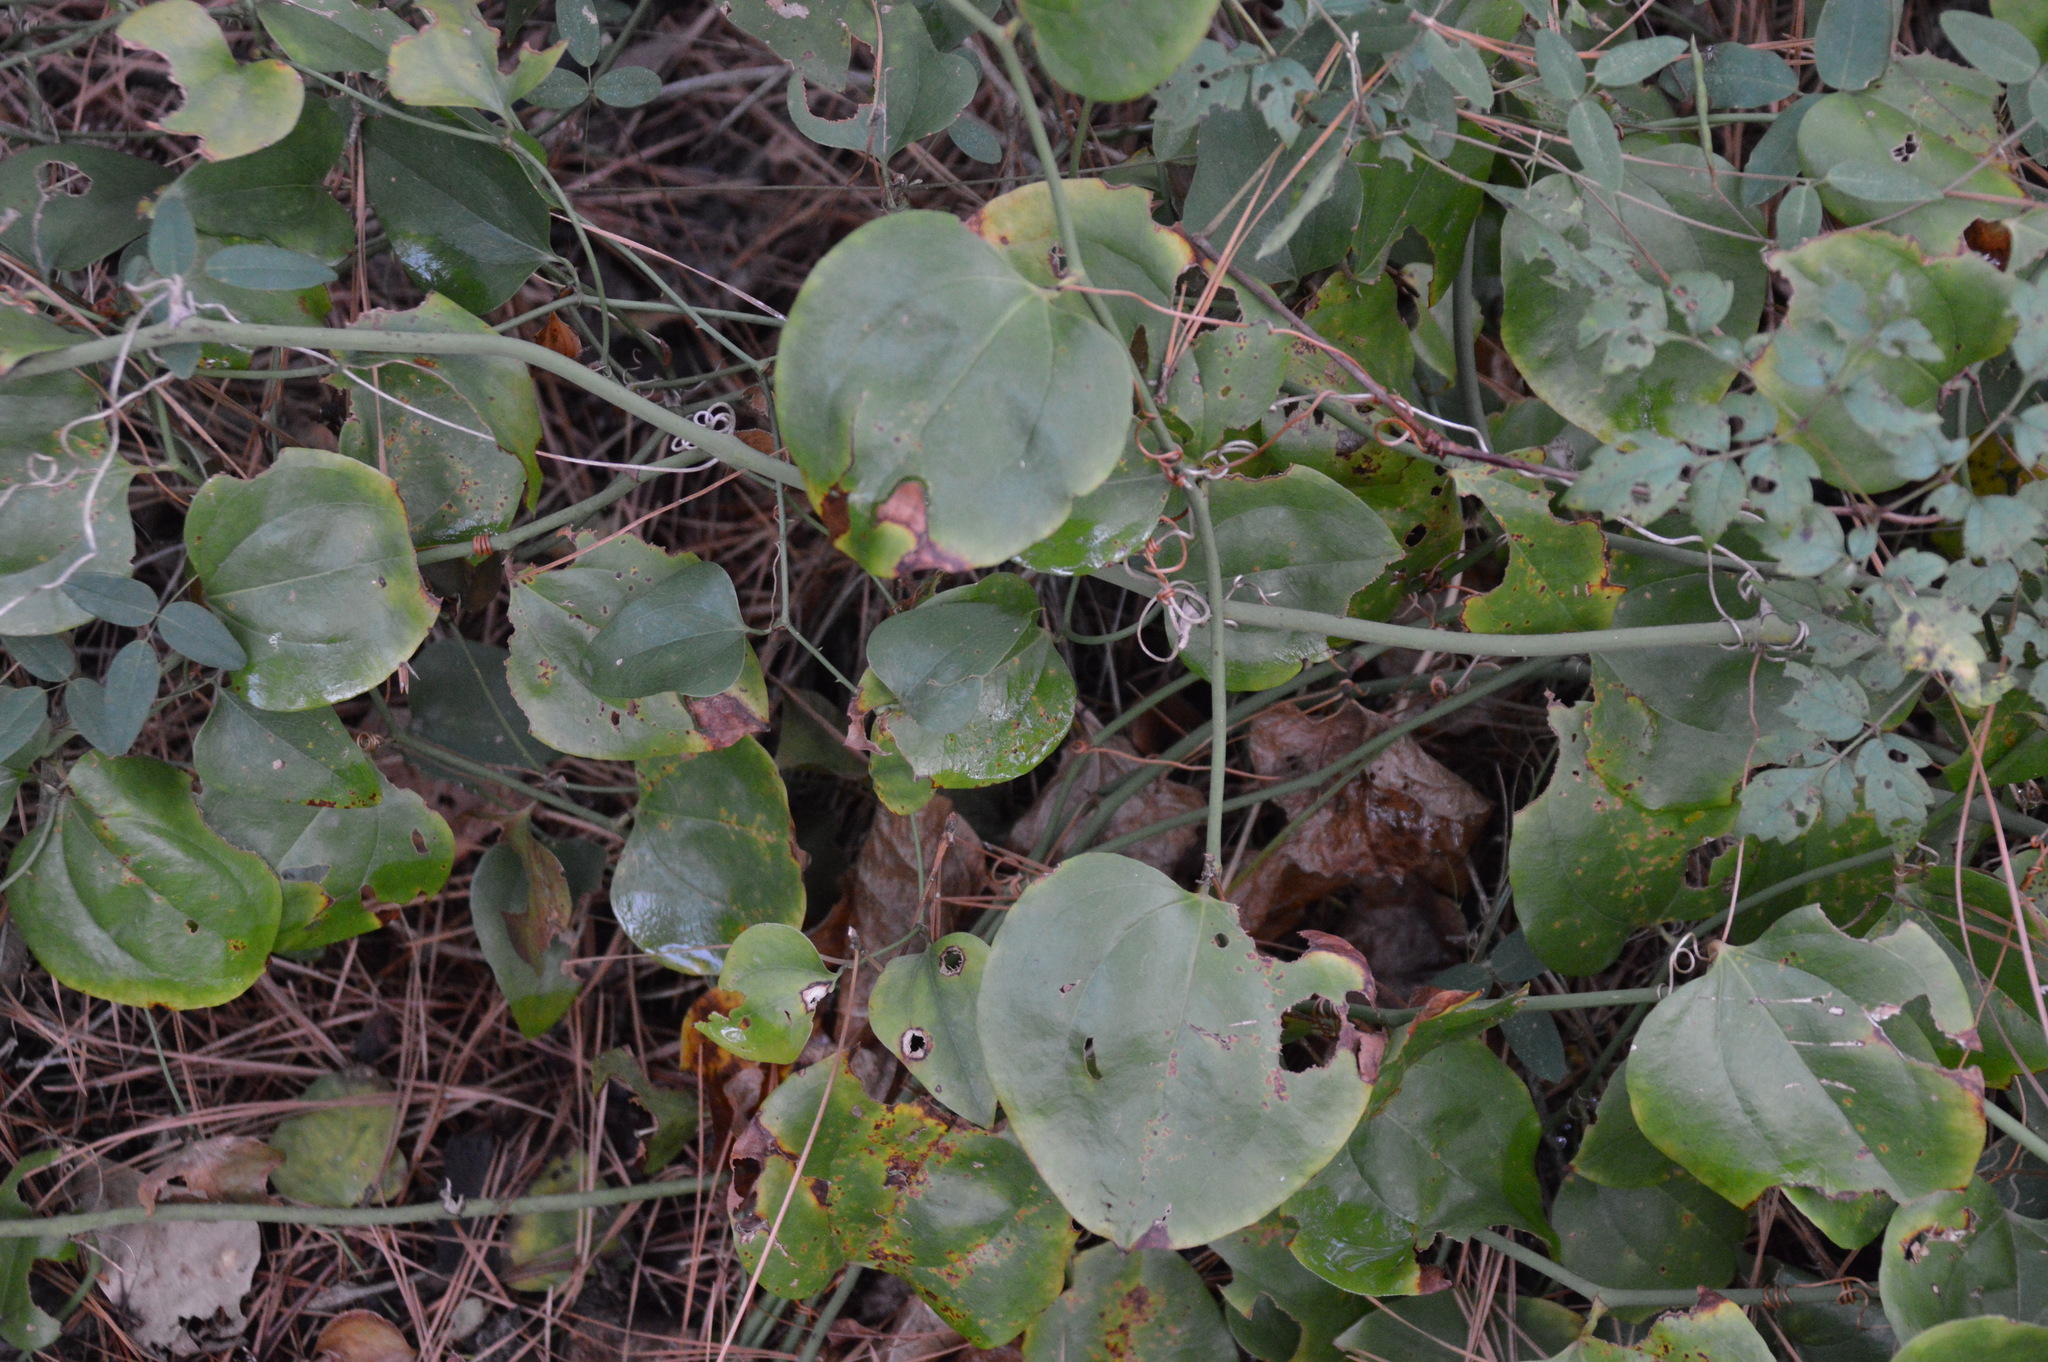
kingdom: Plantae
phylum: Tracheophyta
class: Liliopsida
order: Liliales
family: Smilacaceae
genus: Smilax
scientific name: Smilax rotundifolia
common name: Bullbriar
